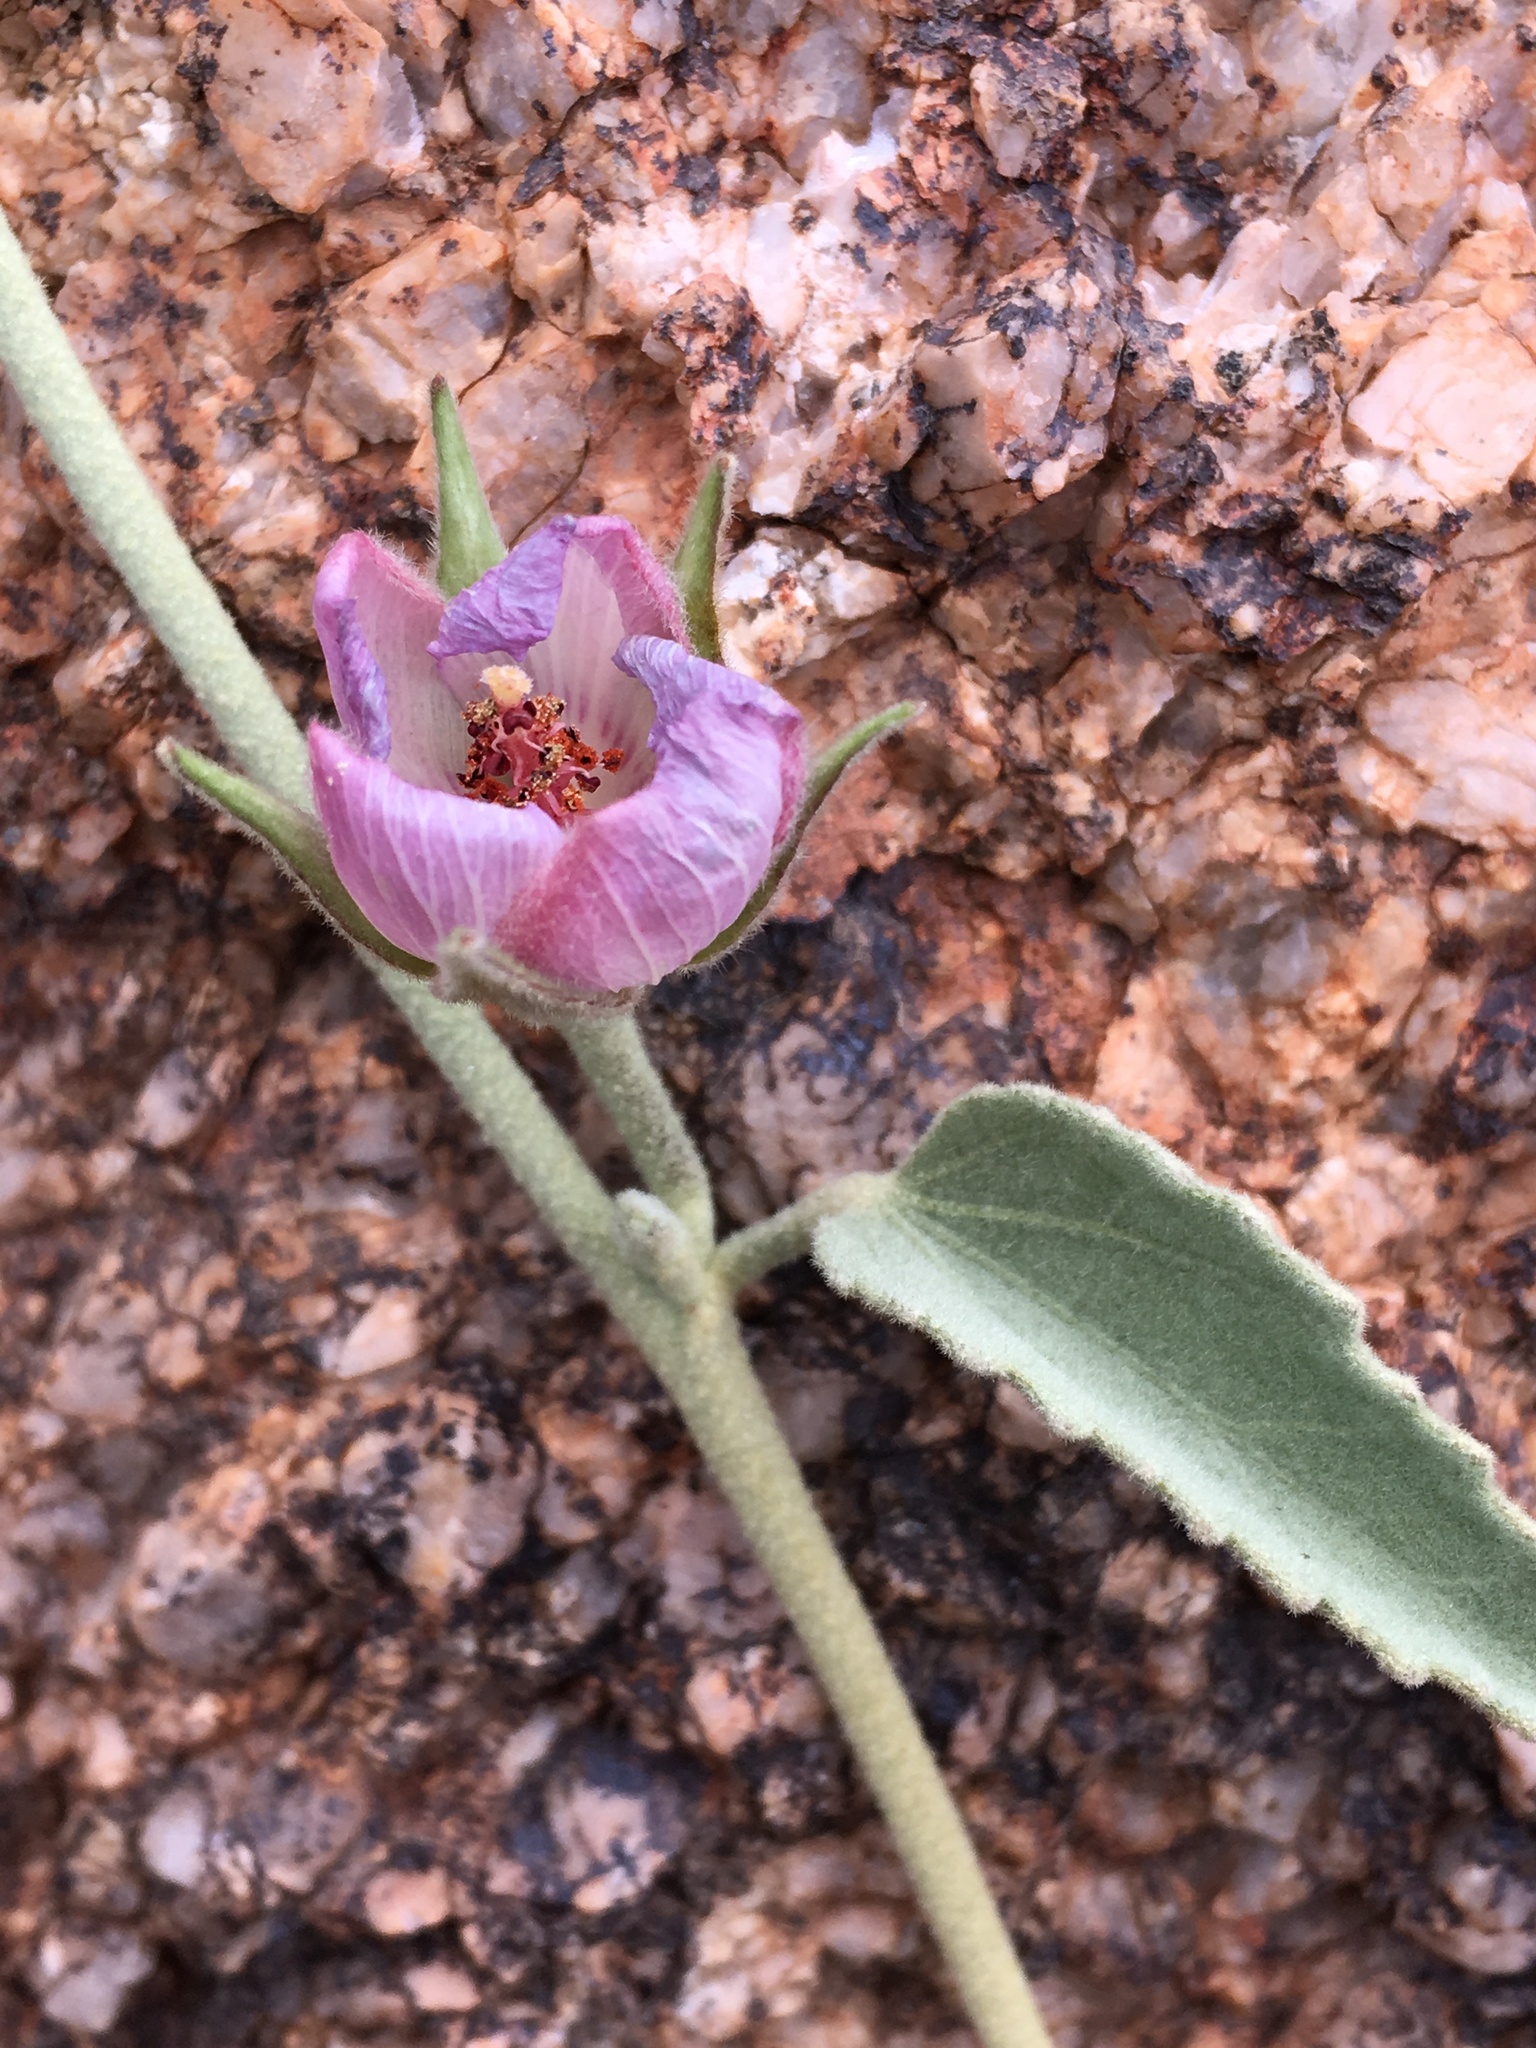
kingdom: Plantae
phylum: Tracheophyta
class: Magnoliopsida
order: Malvales
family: Malvaceae
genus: Hibiscus
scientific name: Hibiscus denudatus
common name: Paleface
